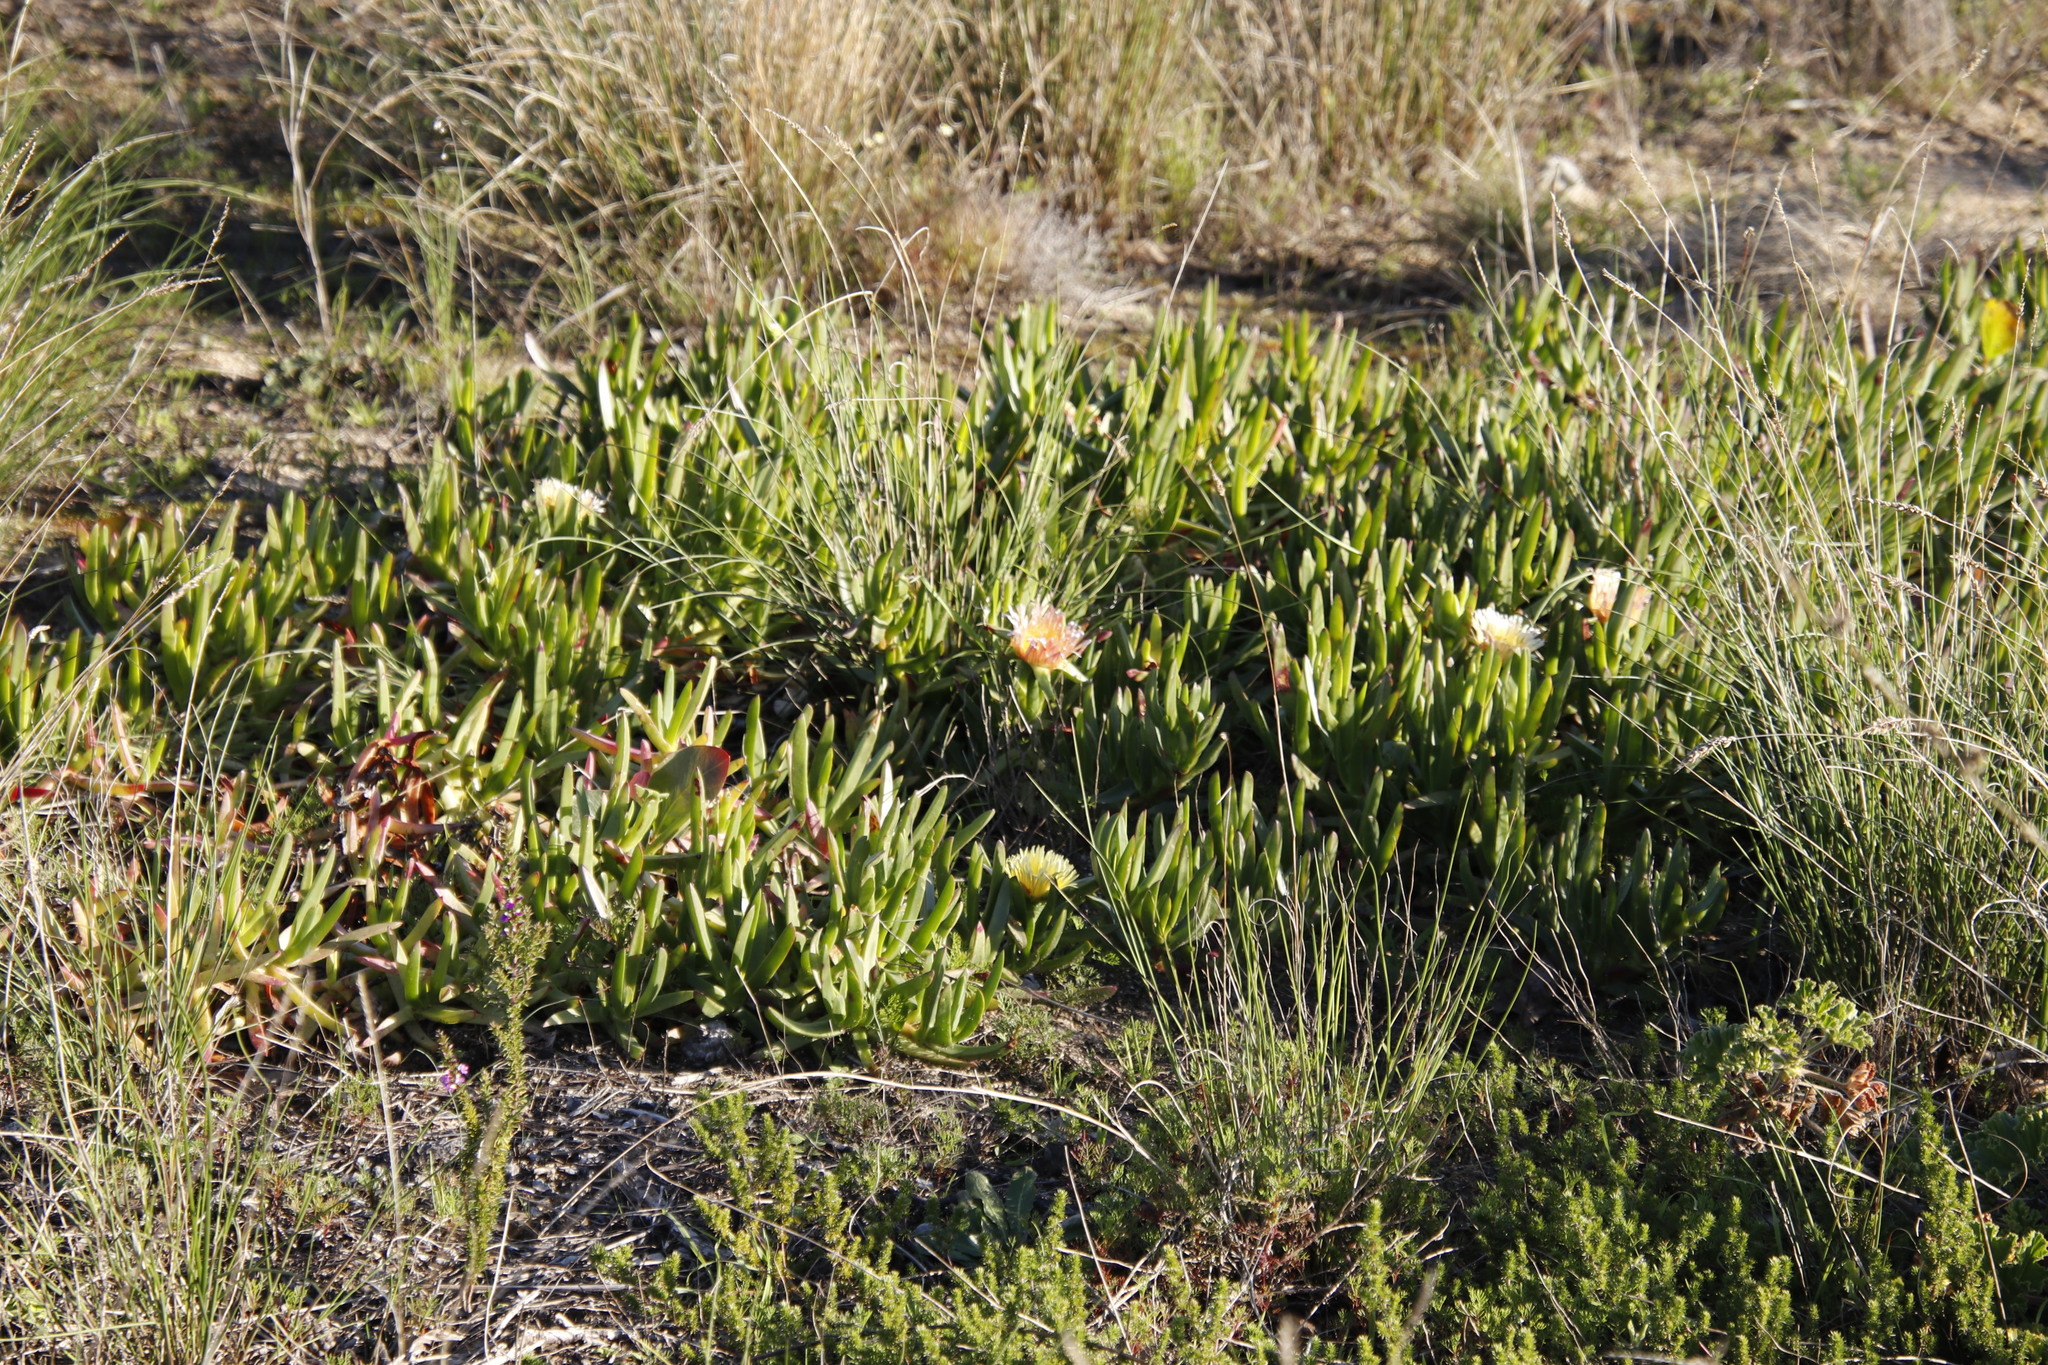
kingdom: Plantae
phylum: Tracheophyta
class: Magnoliopsida
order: Caryophyllales
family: Aizoaceae
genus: Carpobrotus
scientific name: Carpobrotus edulis
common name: Hottentot-fig
